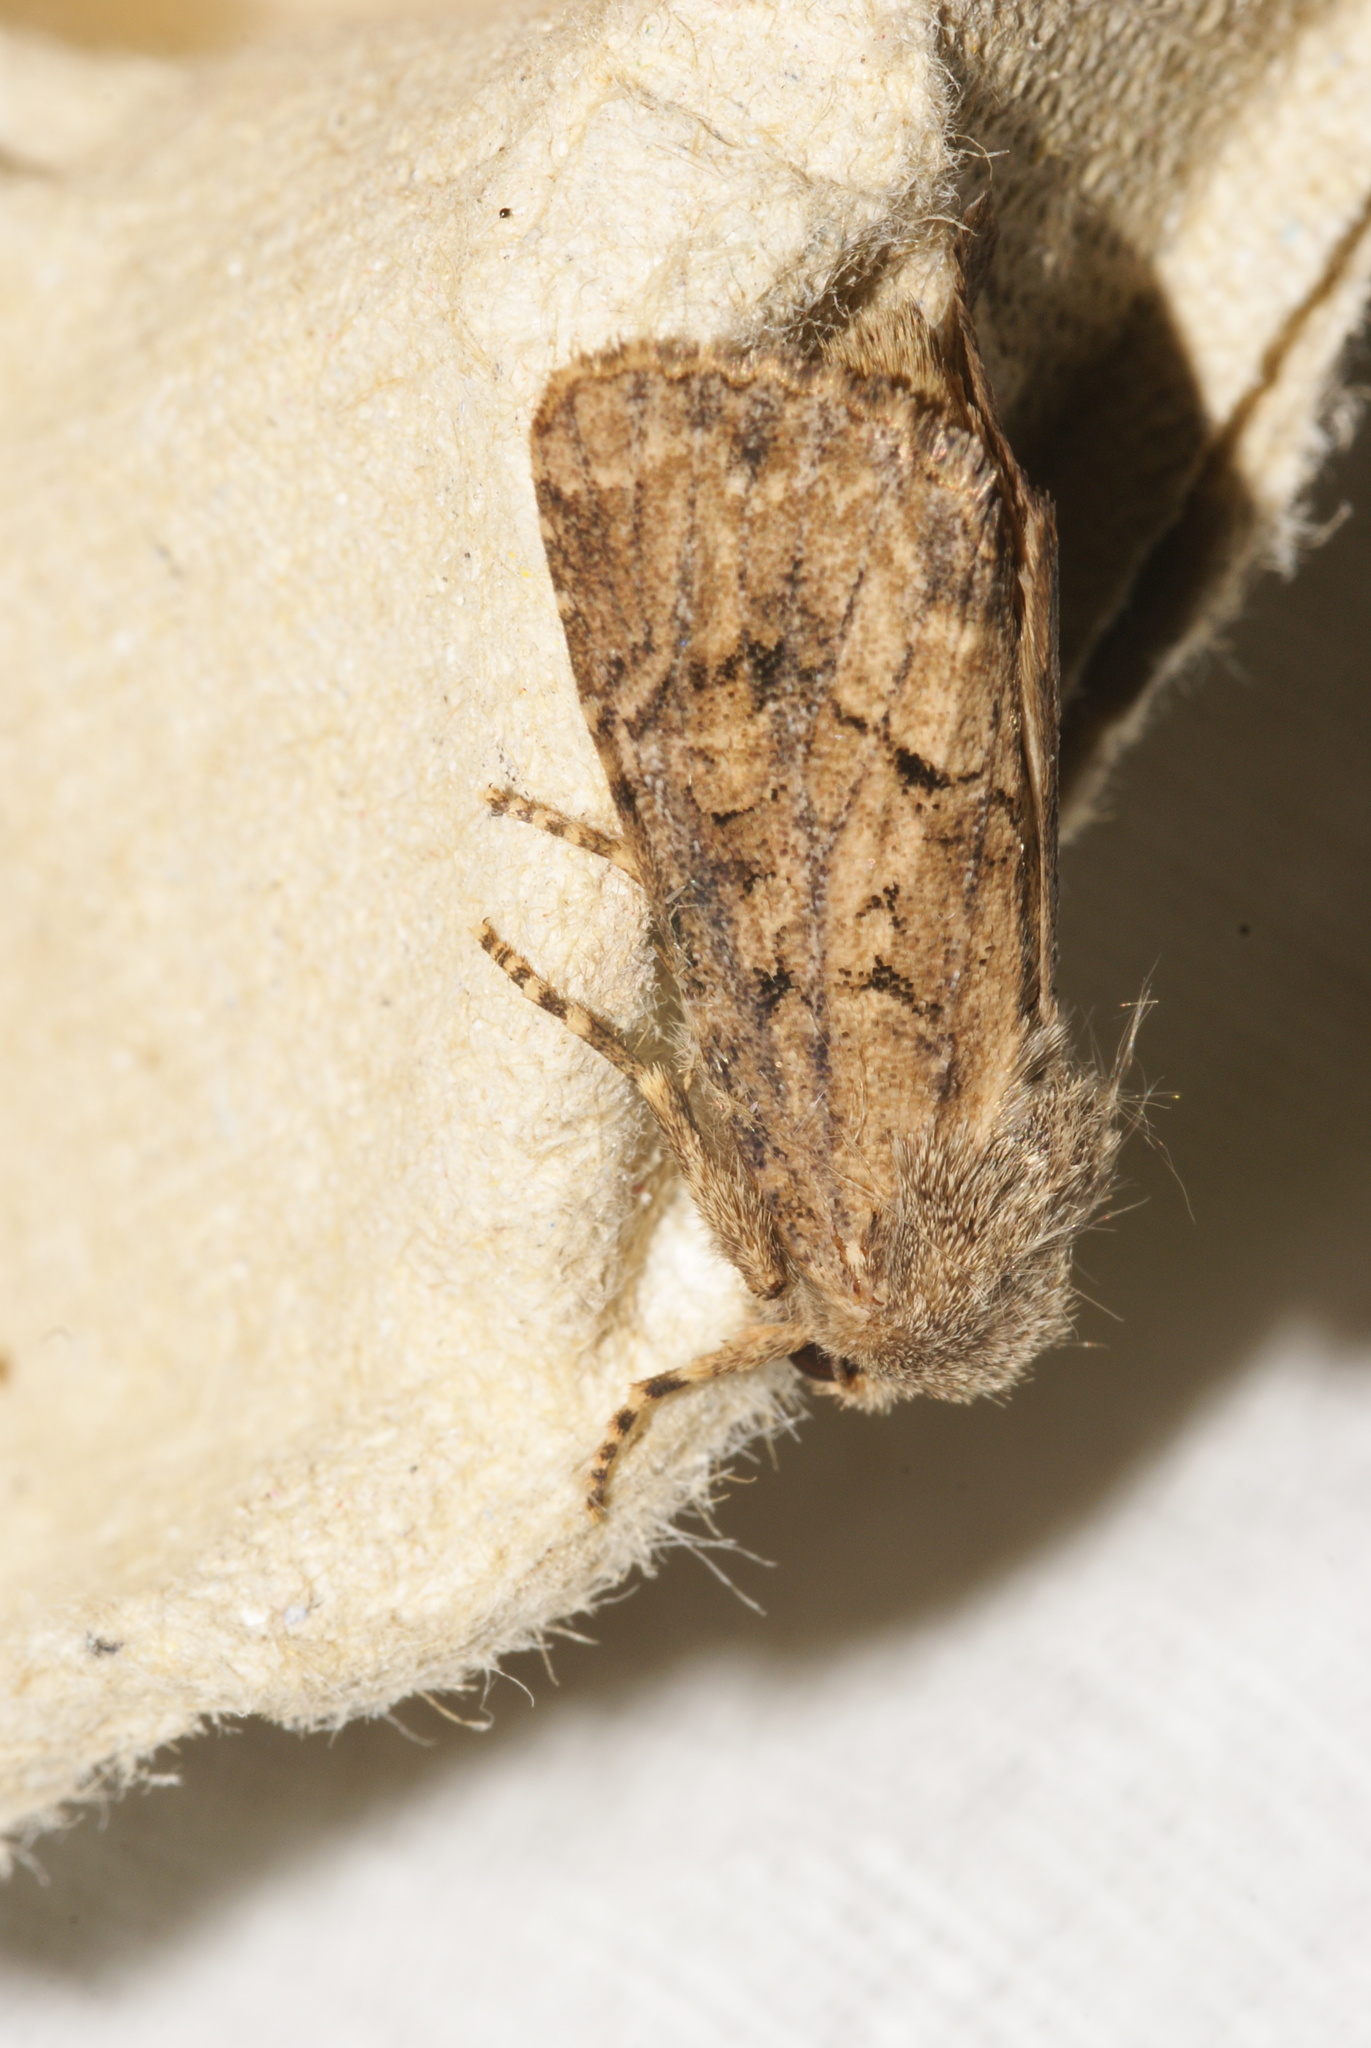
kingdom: Animalia
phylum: Arthropoda
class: Insecta
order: Lepidoptera
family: Noctuidae
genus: Luperina
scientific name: Luperina testacea
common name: Flounced rustic
